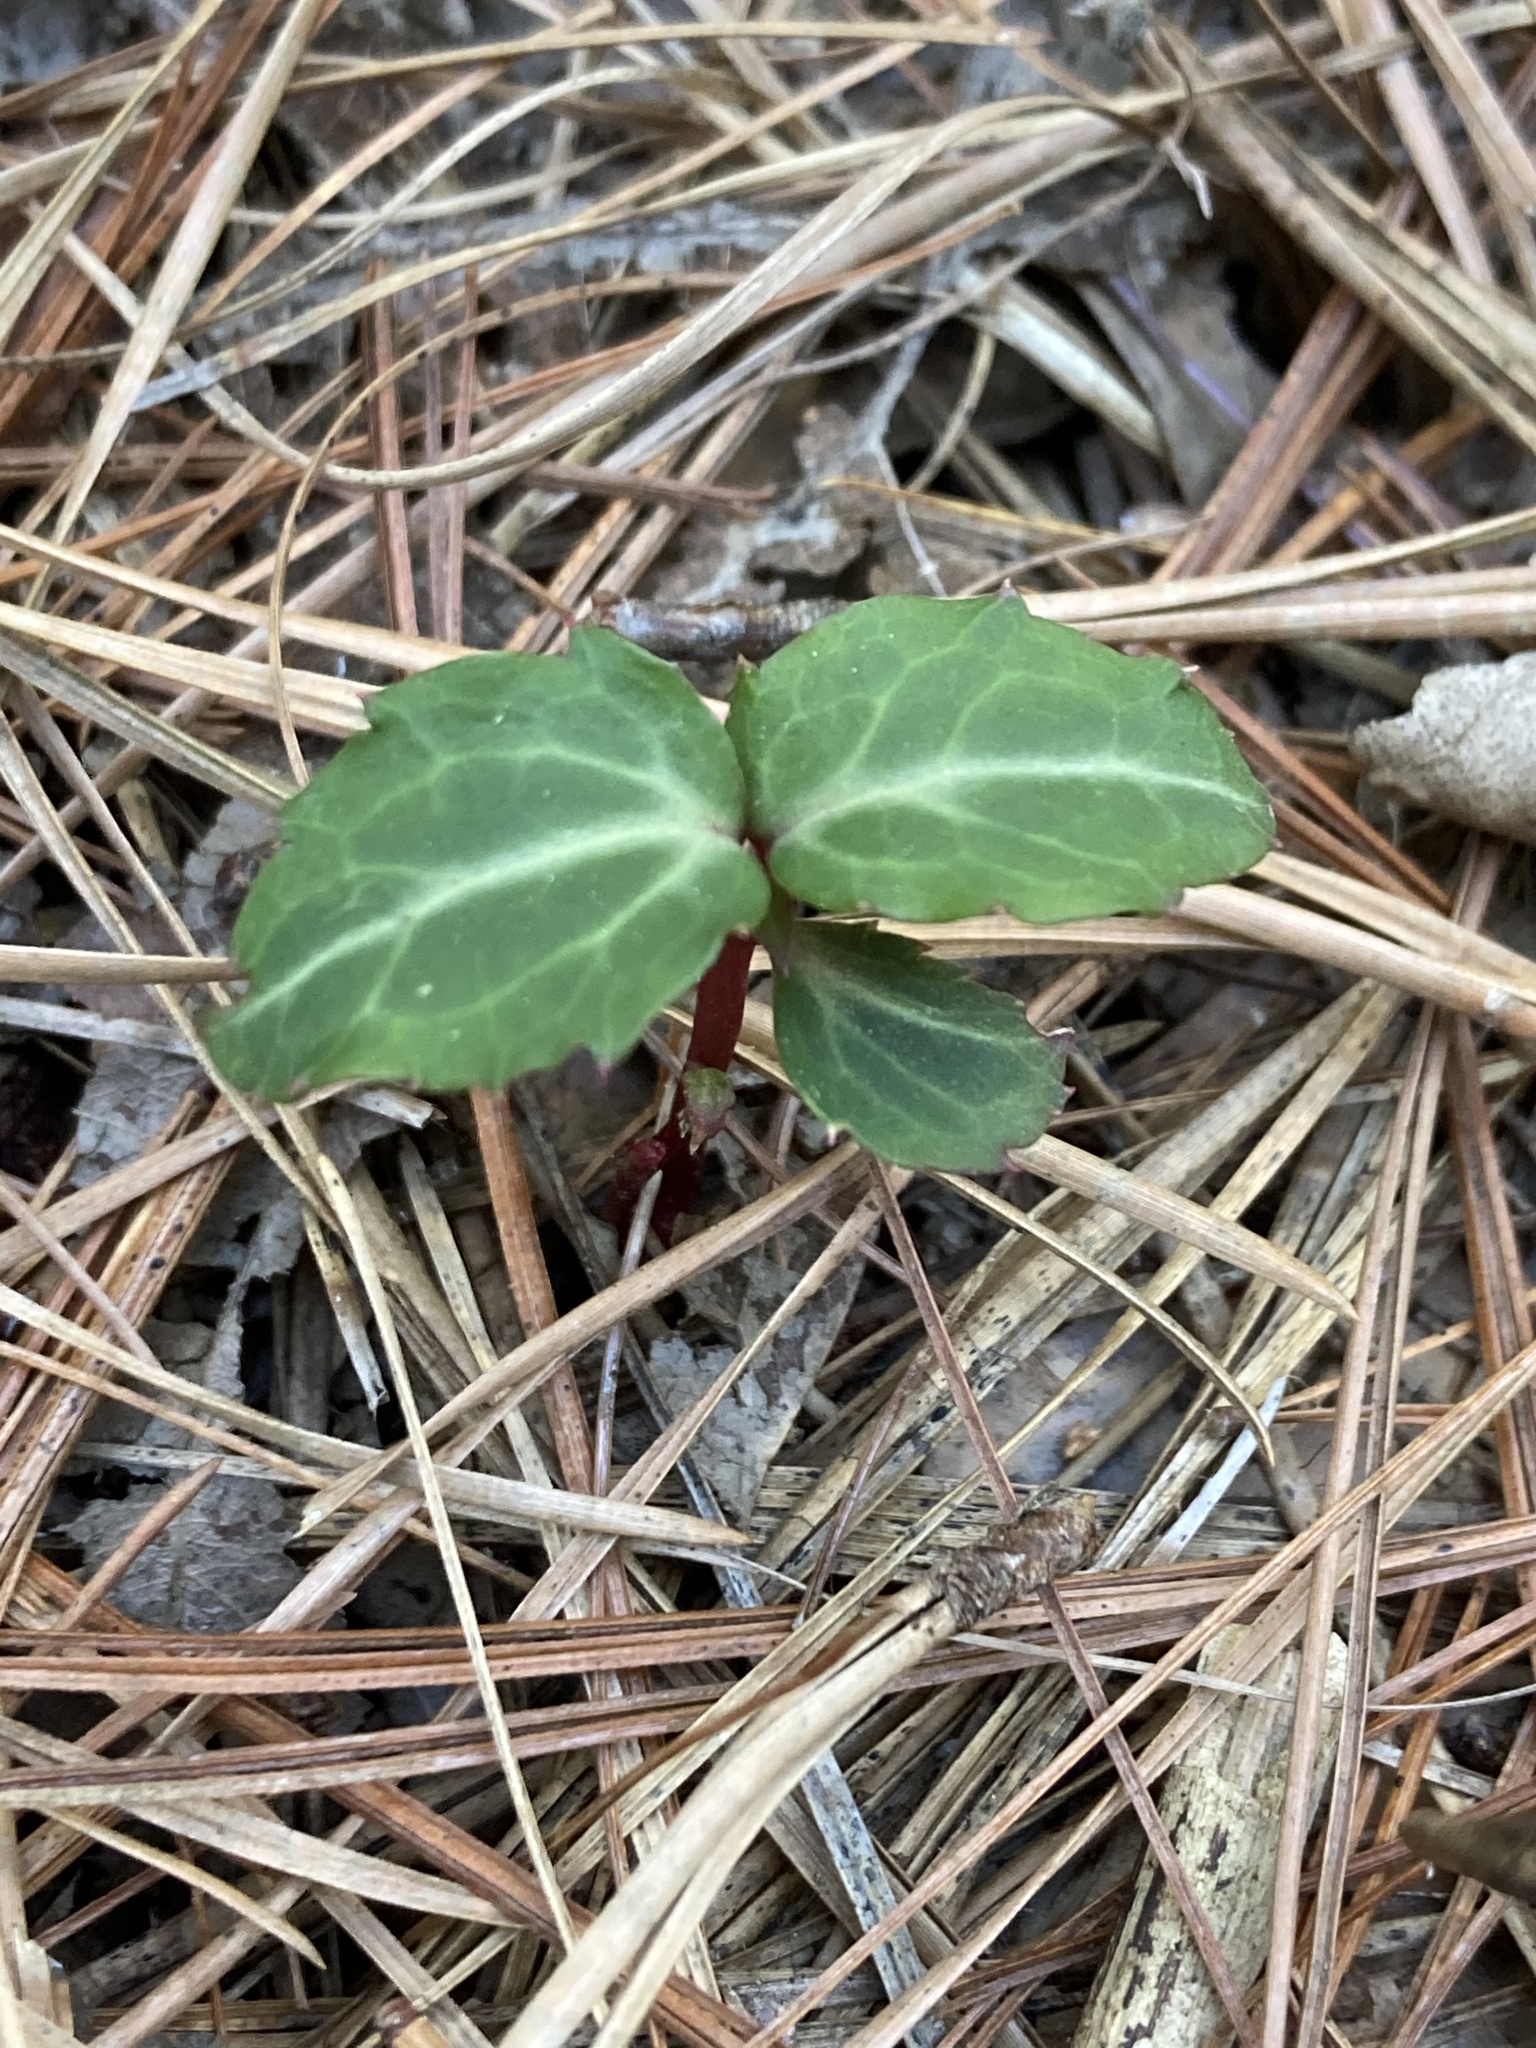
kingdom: Plantae
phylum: Tracheophyta
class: Magnoliopsida
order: Ericales
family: Ericaceae
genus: Chimaphila
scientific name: Chimaphila maculata
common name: Spotted pipsissewa
